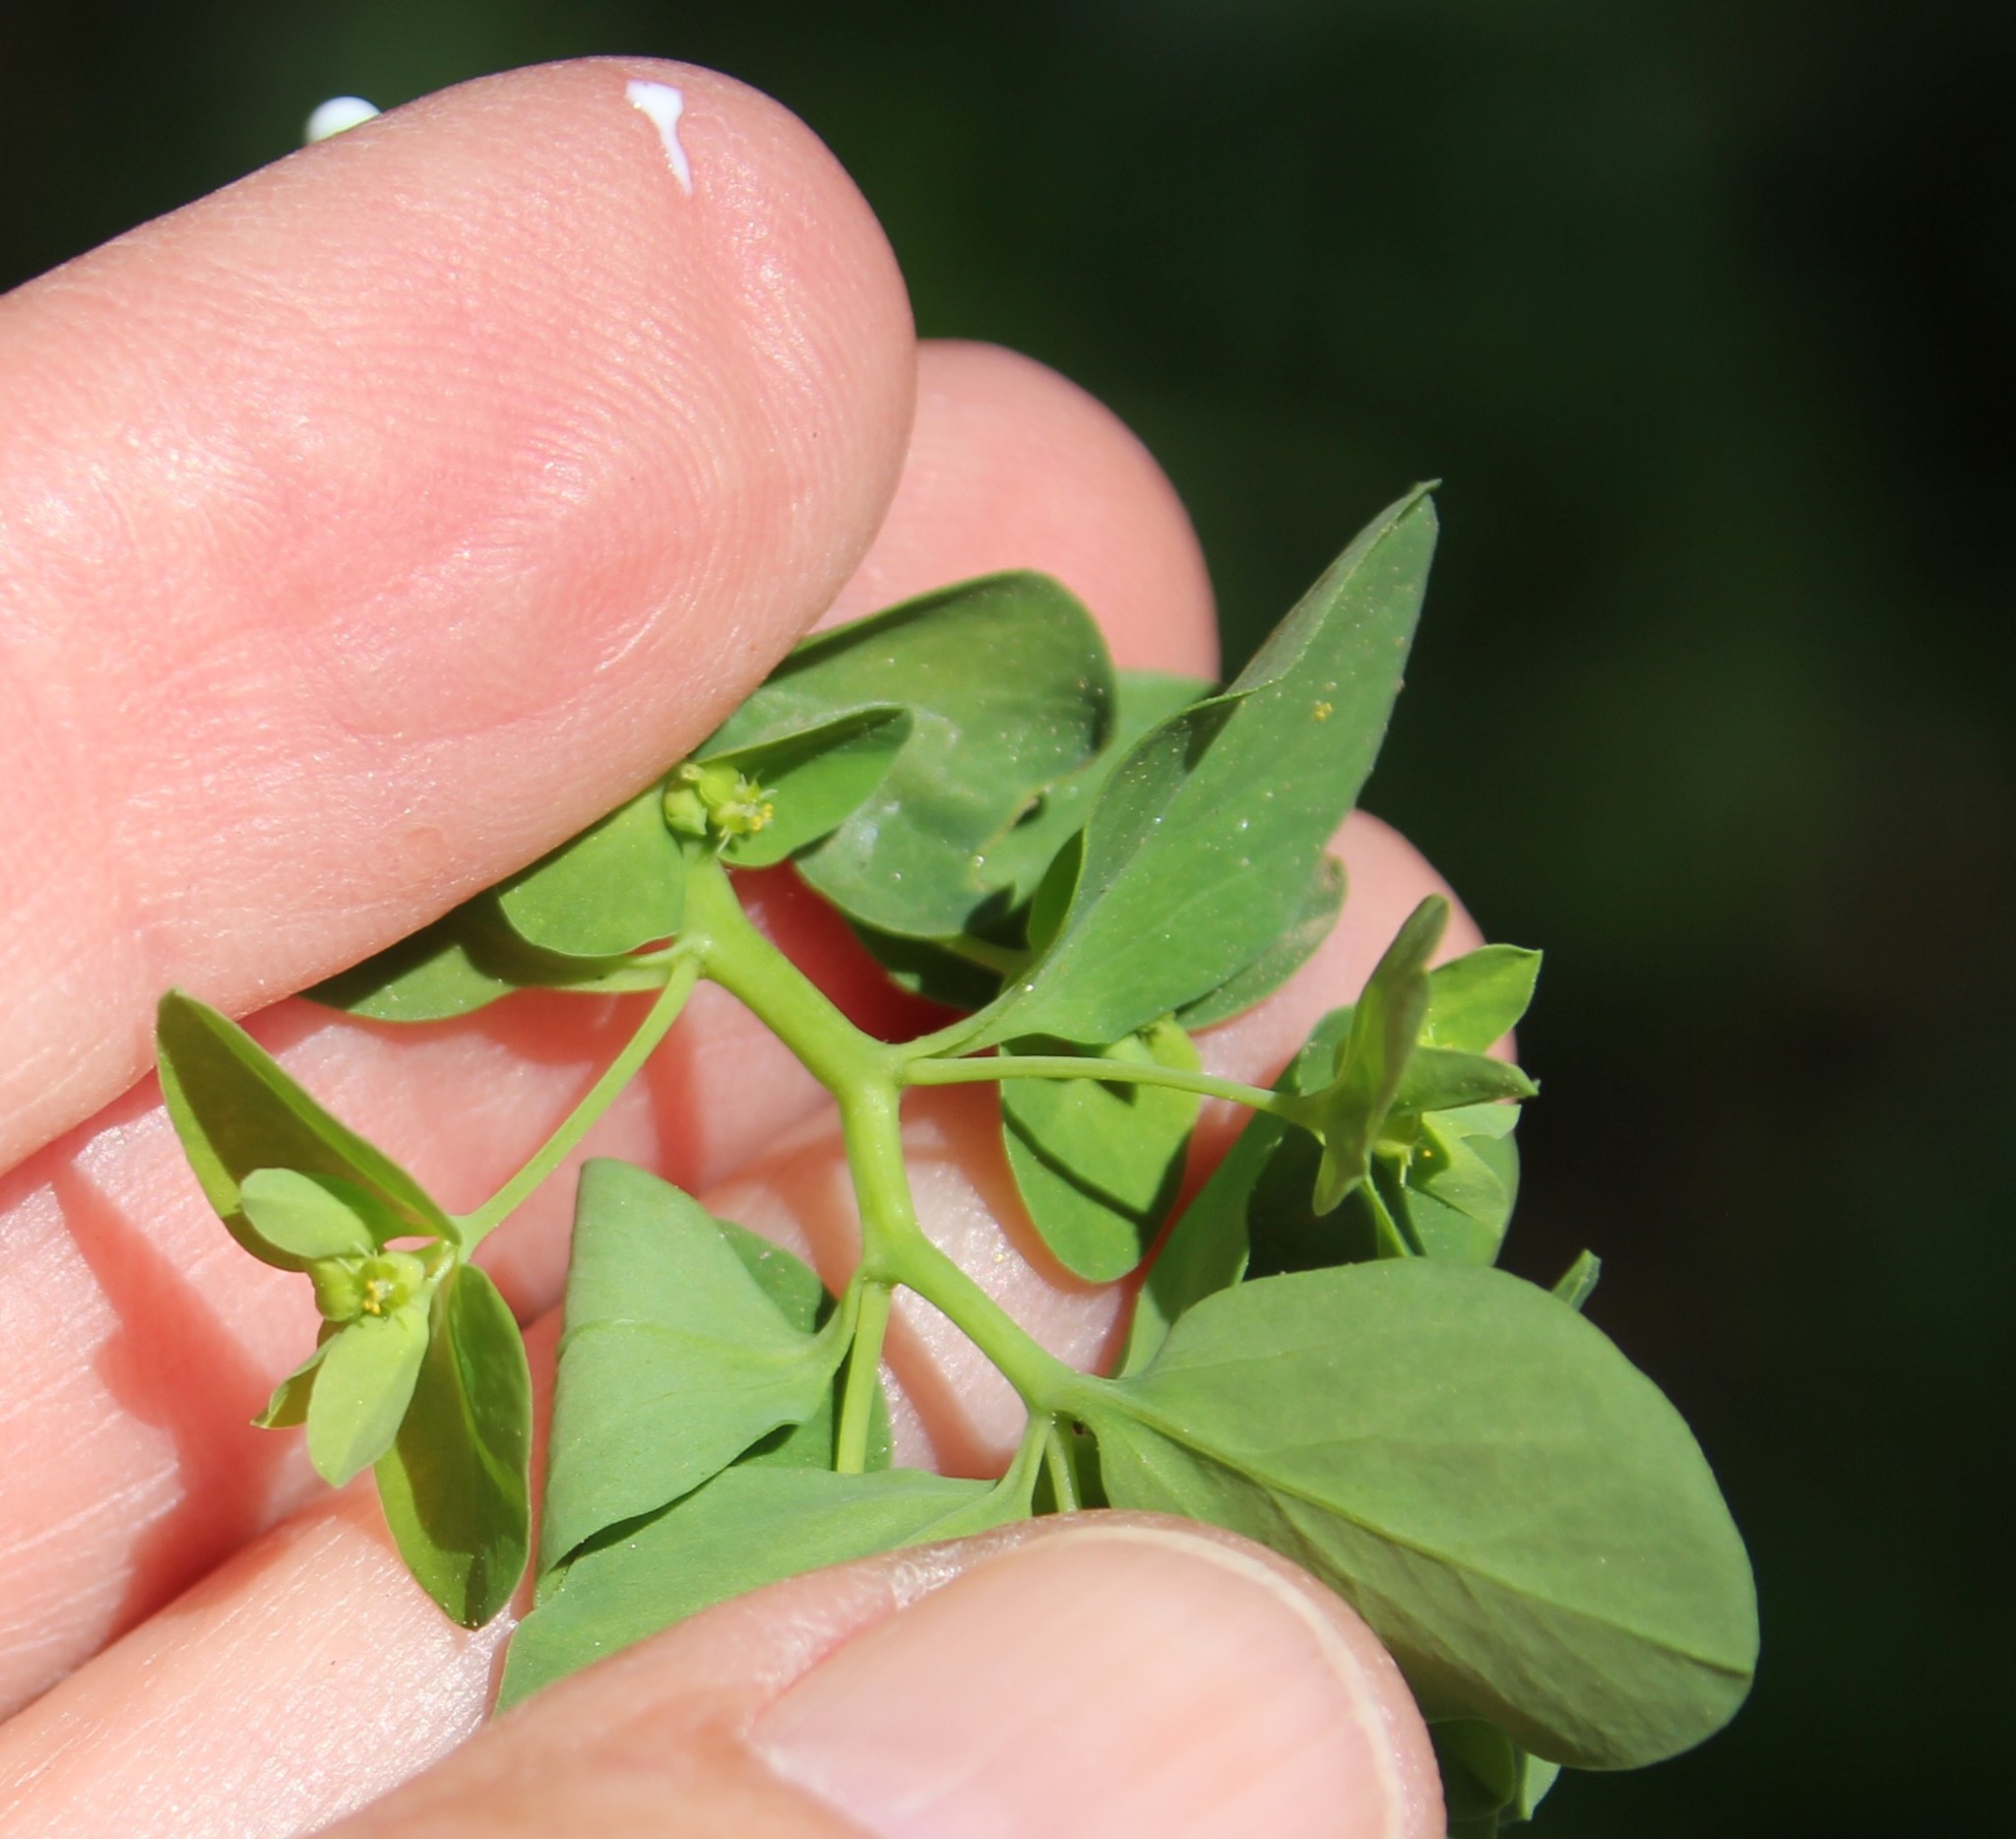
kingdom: Plantae
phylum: Tracheophyta
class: Magnoliopsida
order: Malpighiales
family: Euphorbiaceae
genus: Euphorbia
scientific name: Euphorbia peplus
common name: Petty spurge
